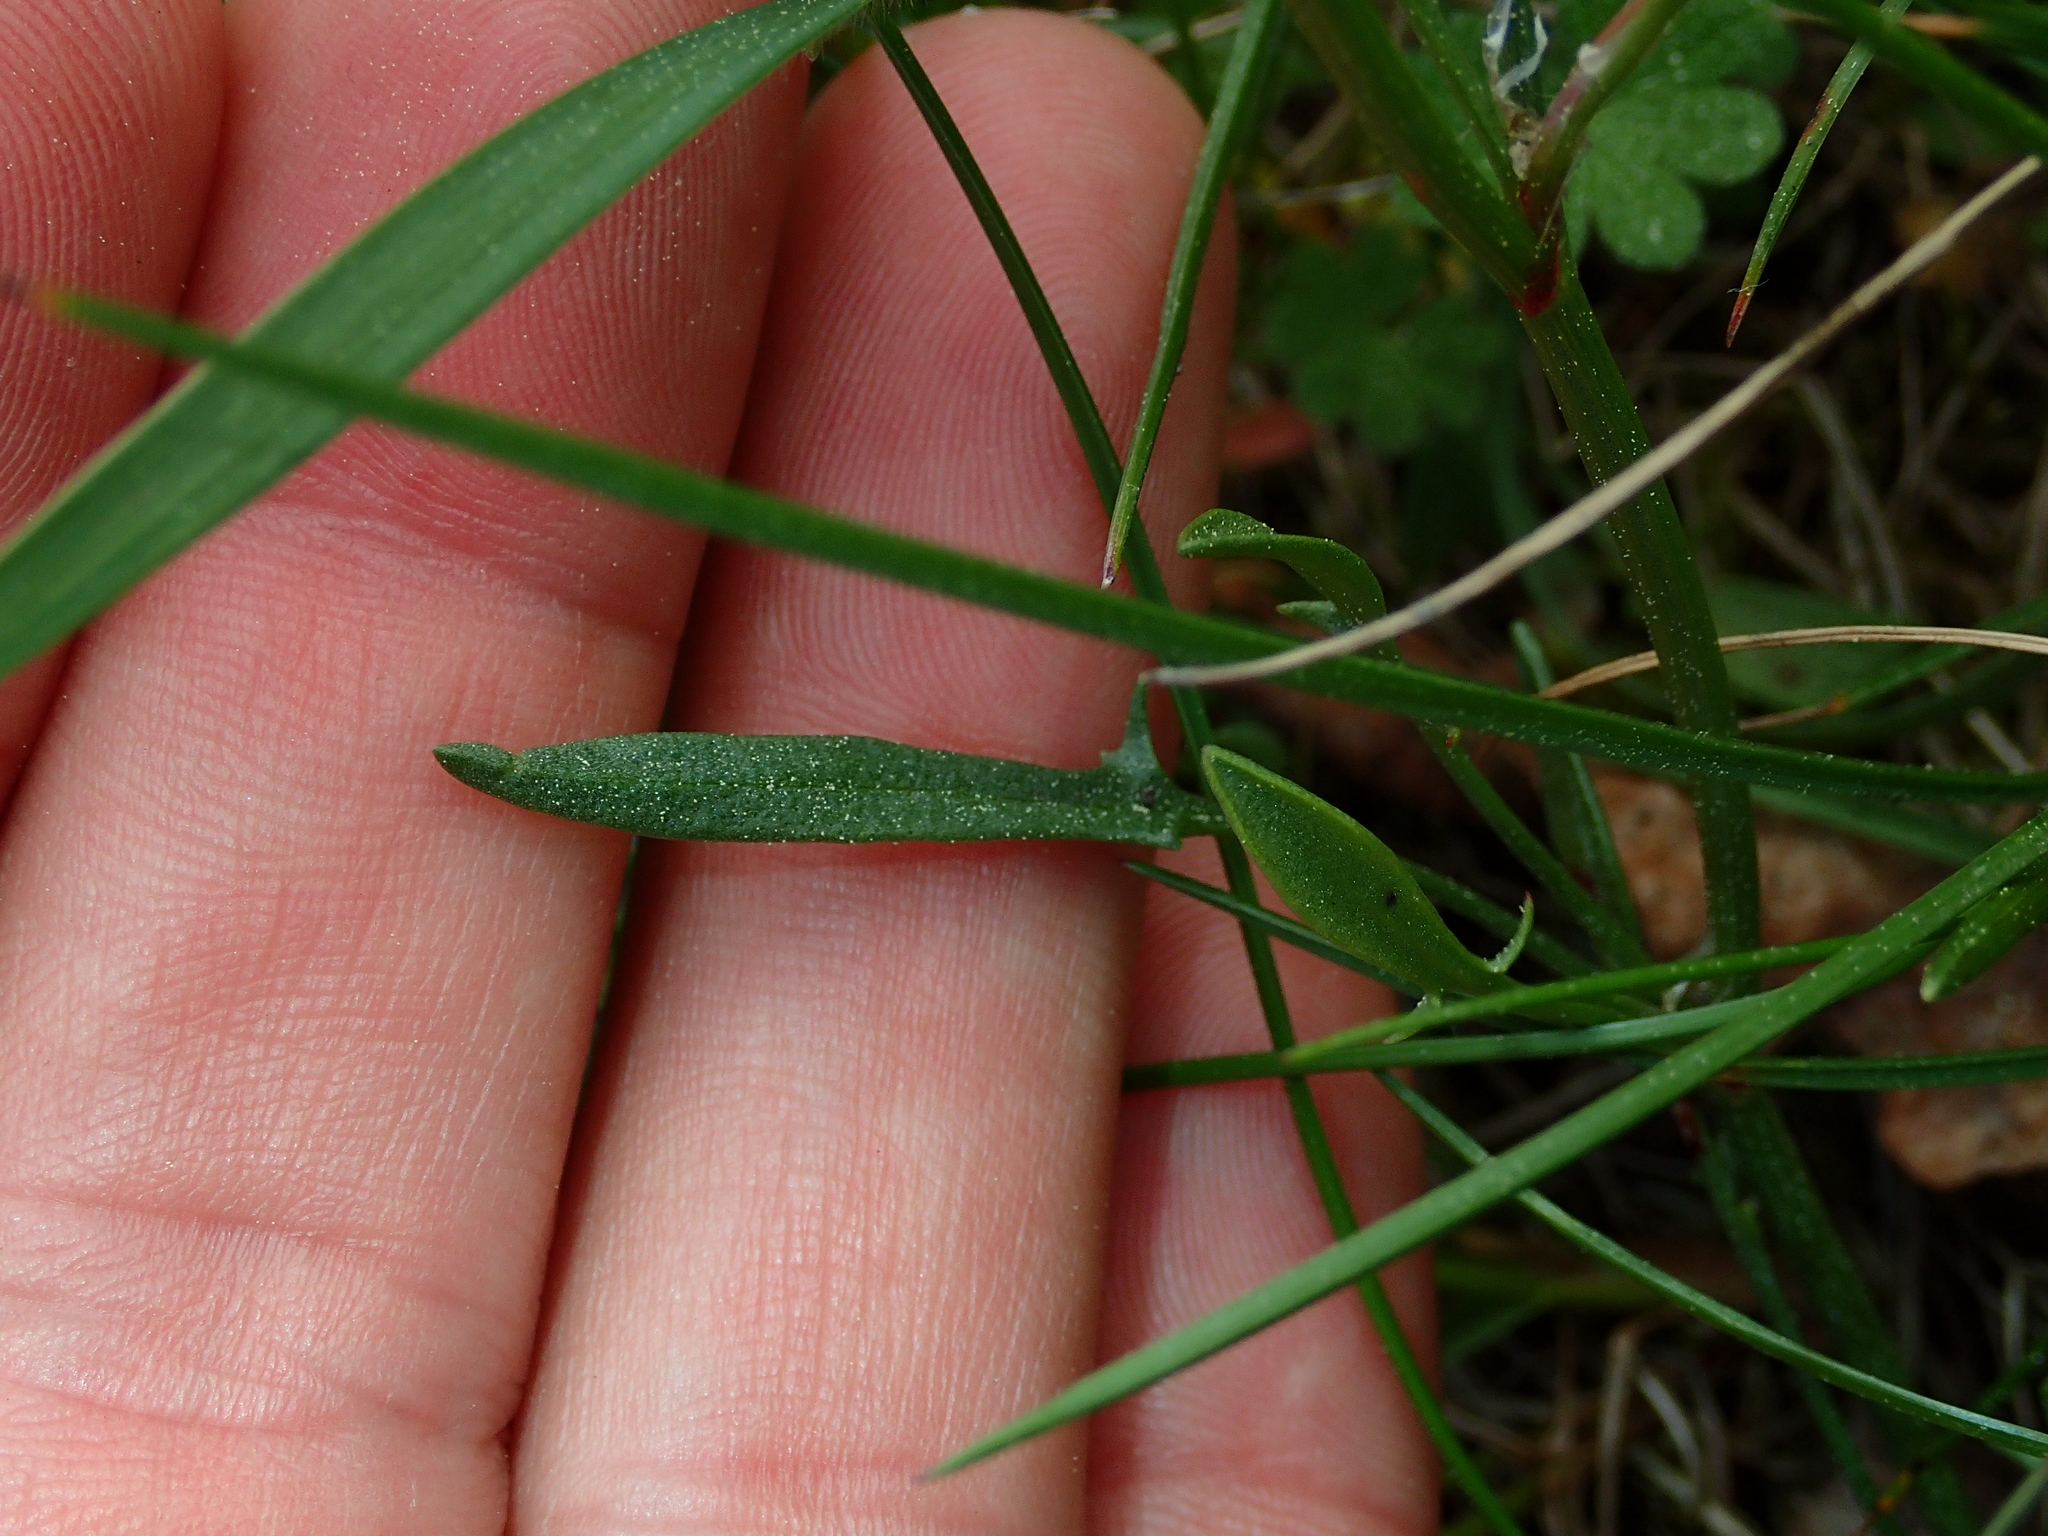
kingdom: Plantae
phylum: Tracheophyta
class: Magnoliopsida
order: Caryophyllales
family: Polygonaceae
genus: Rumex
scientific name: Rumex acetosella
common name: Common sheep sorrel
